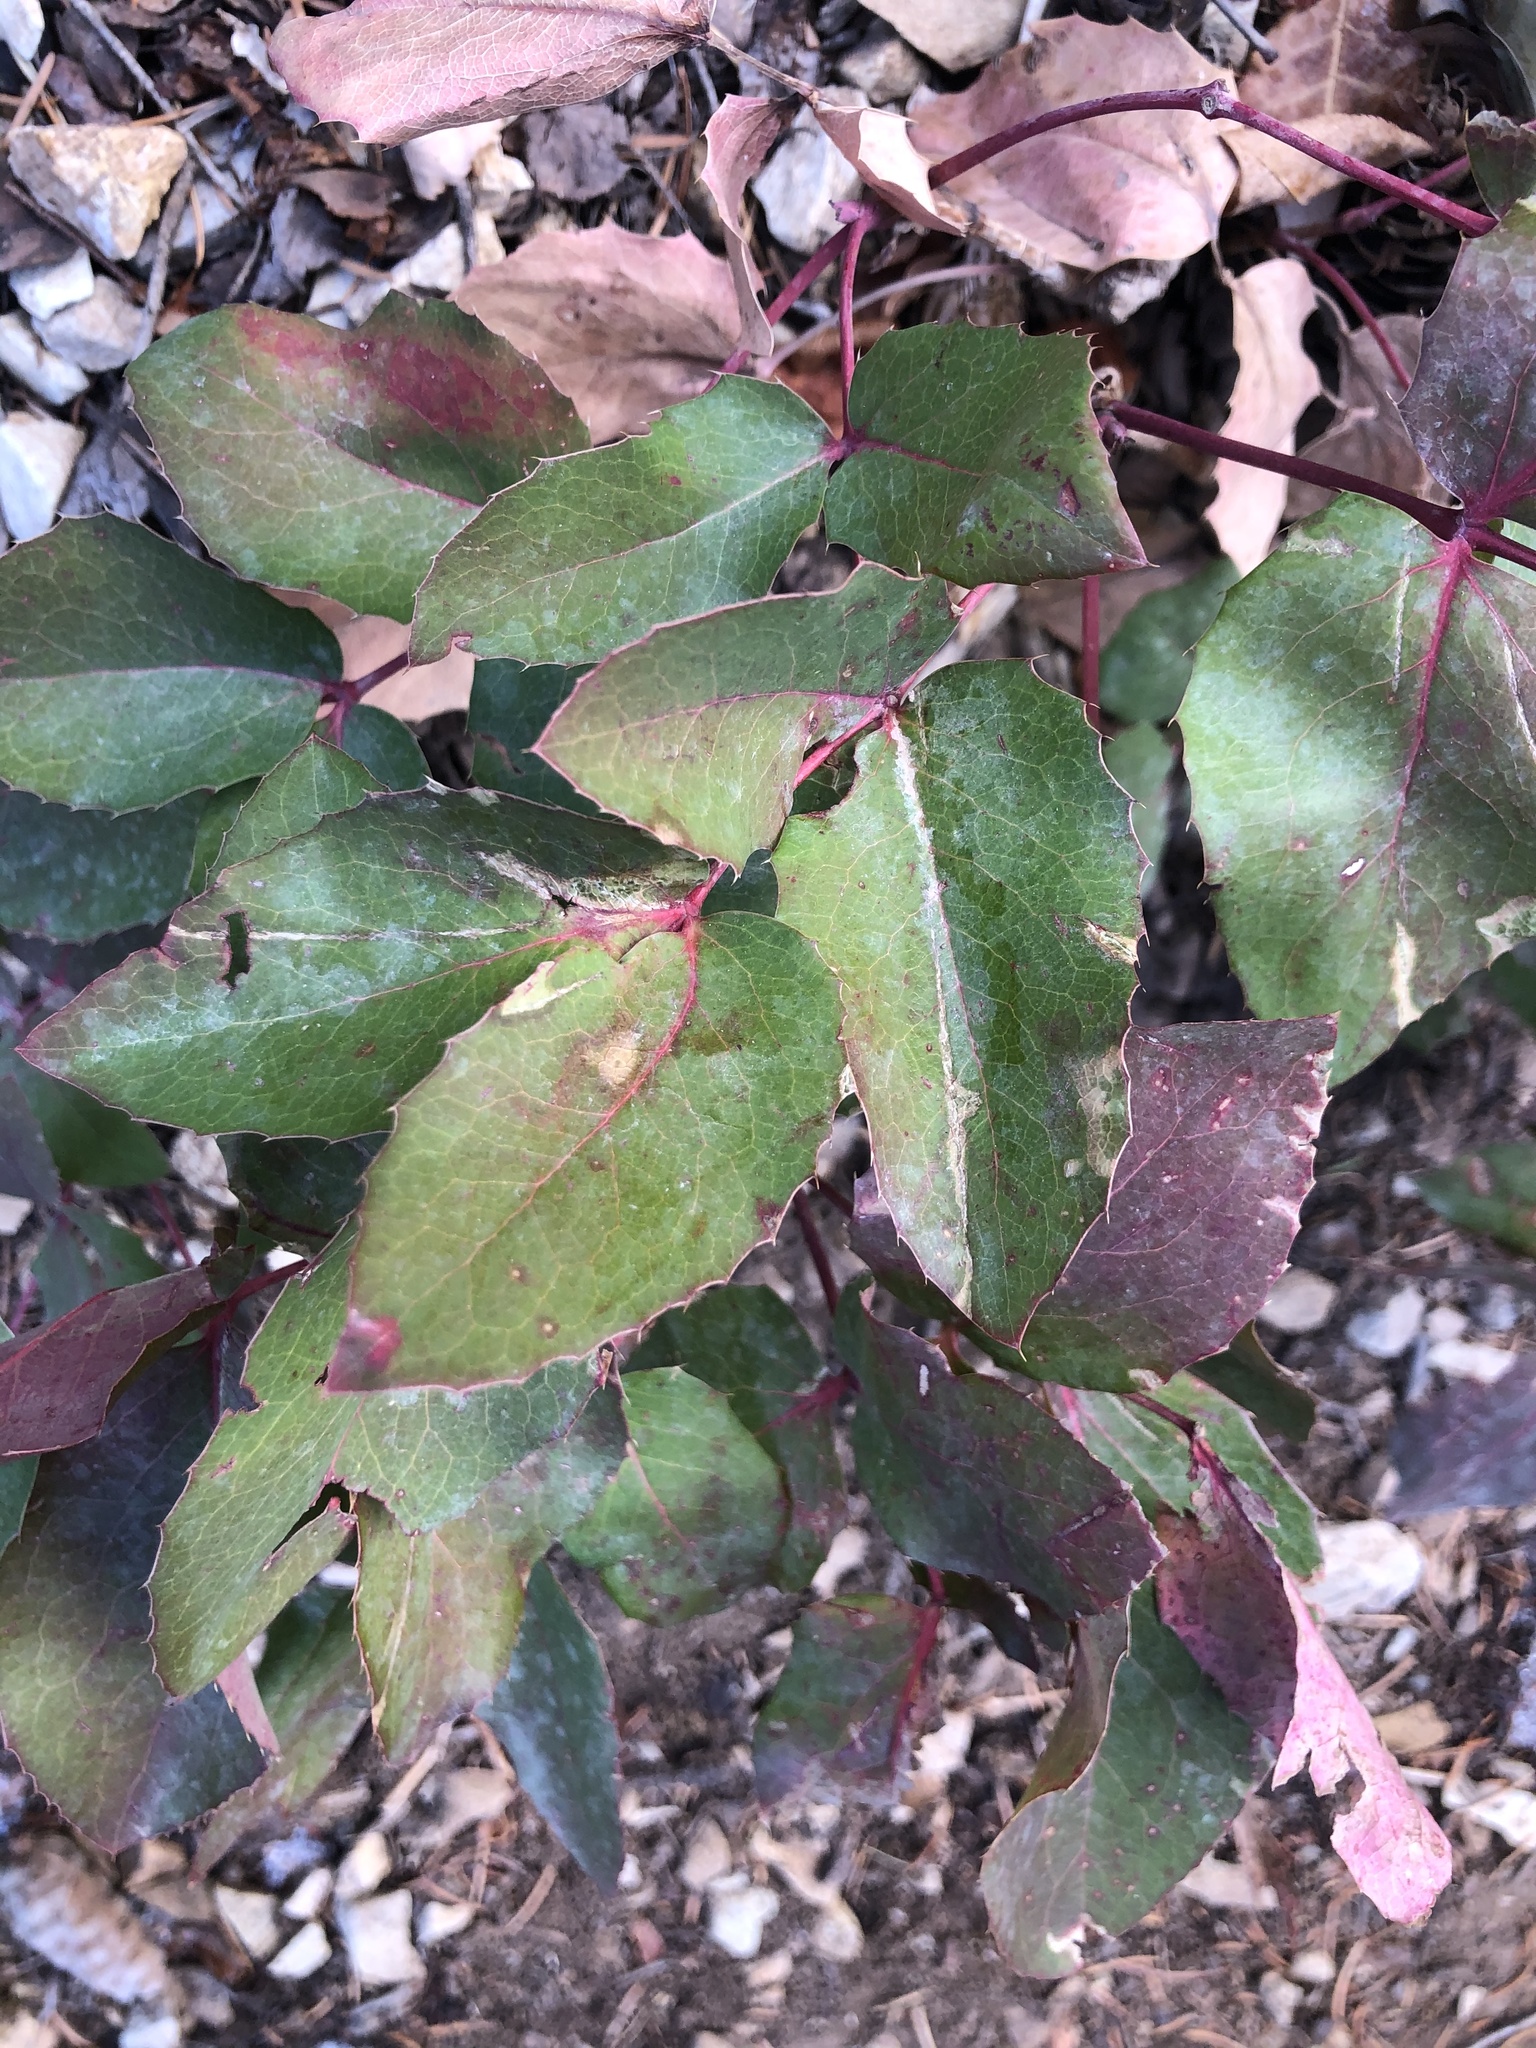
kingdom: Plantae
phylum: Tracheophyta
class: Magnoliopsida
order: Ranunculales
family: Berberidaceae
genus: Mahonia
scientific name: Mahonia repens
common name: Creeping oregon-grape
